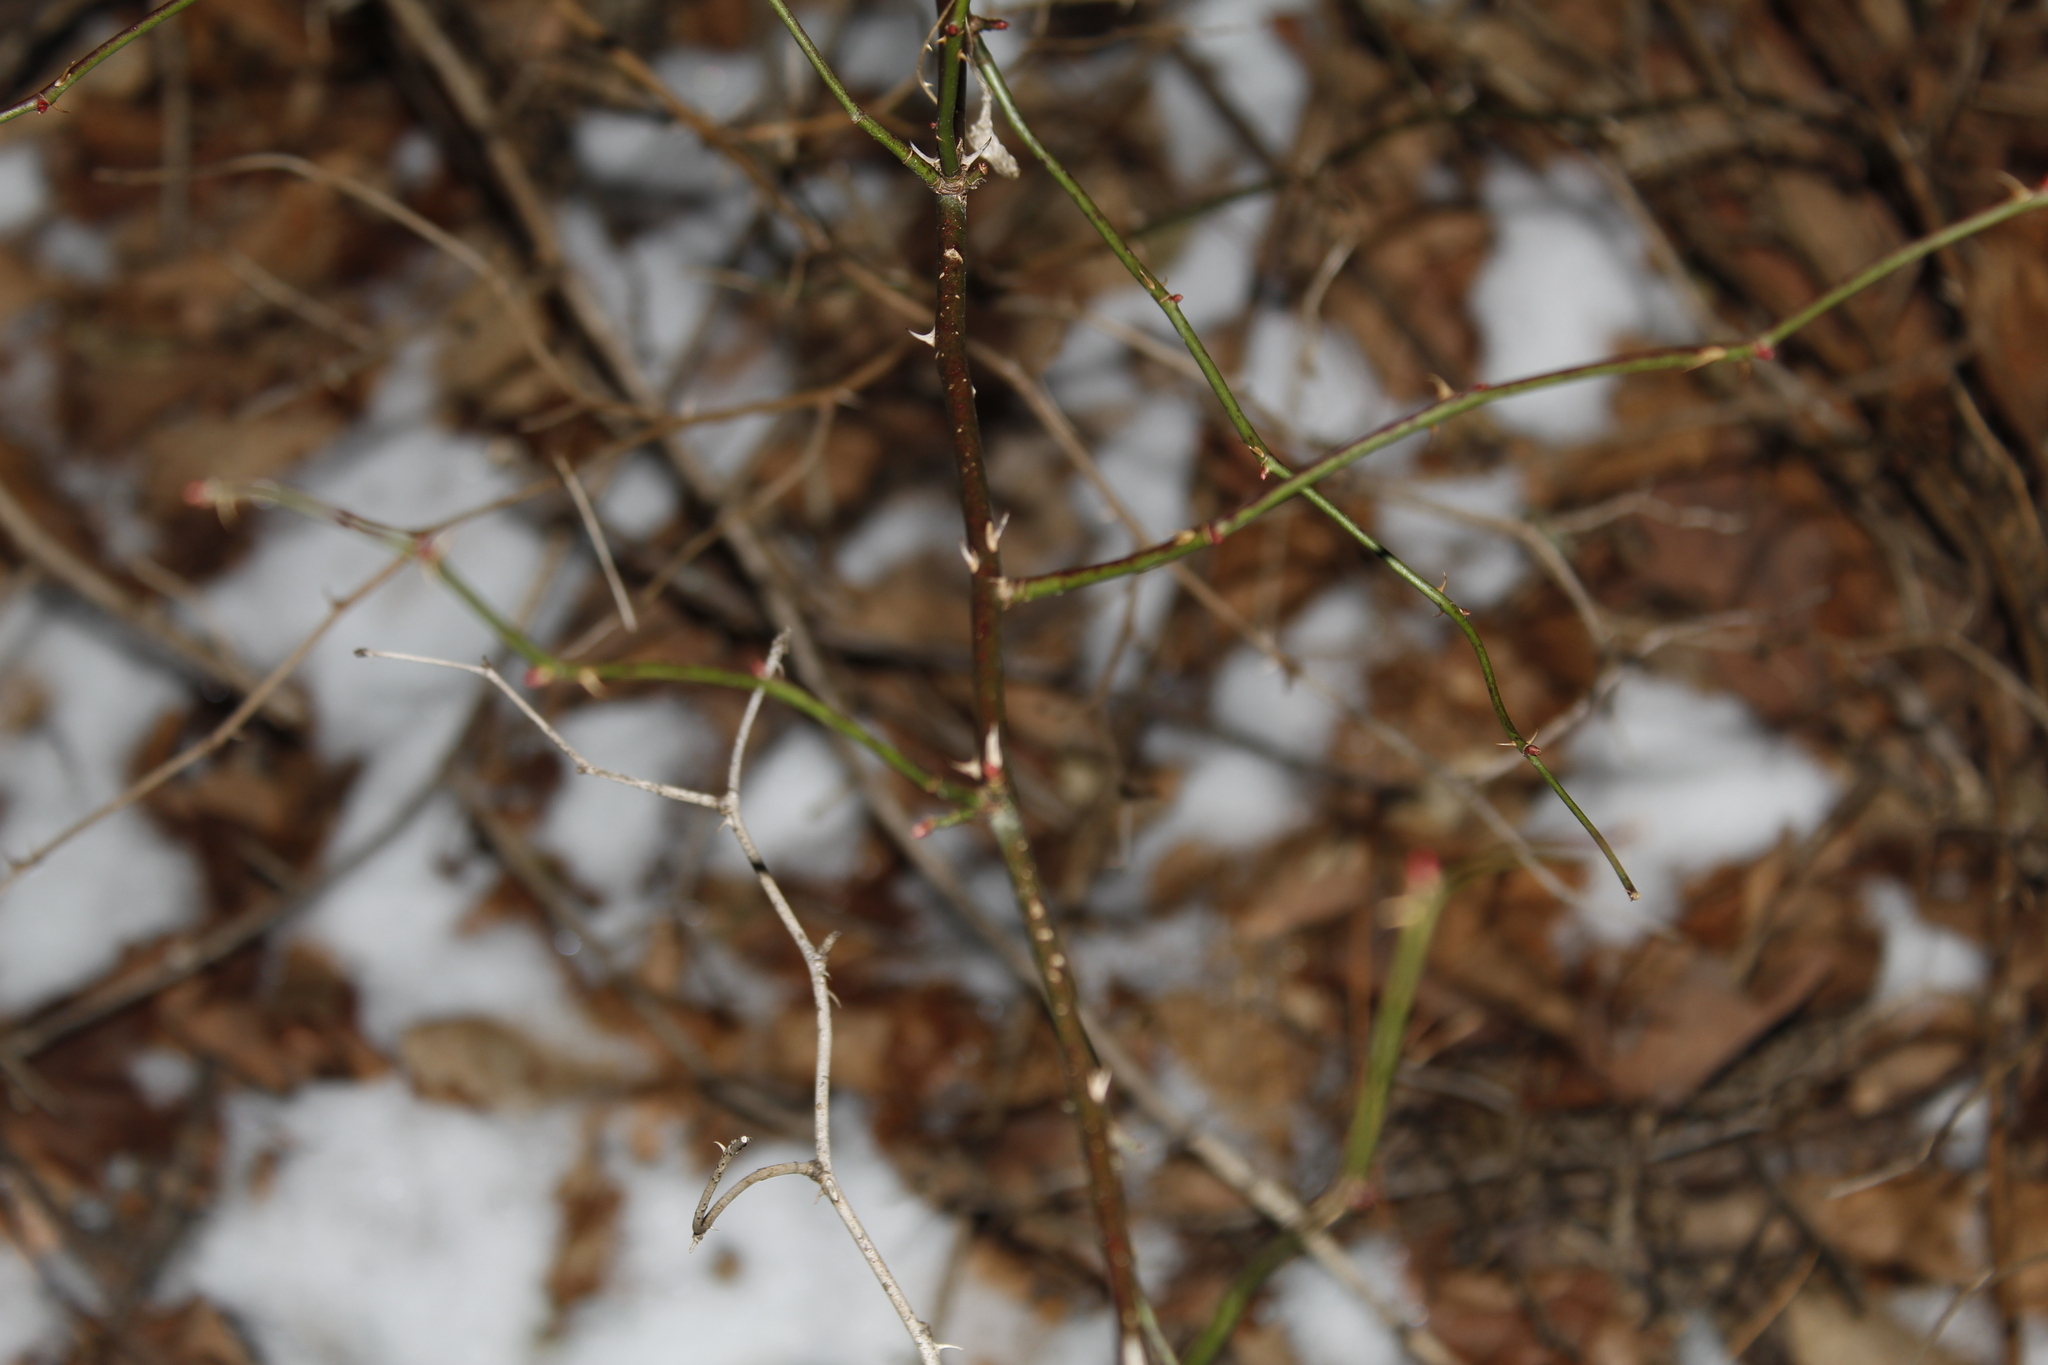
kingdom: Plantae
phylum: Tracheophyta
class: Magnoliopsida
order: Rosales
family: Rosaceae
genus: Rosa
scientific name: Rosa multiflora
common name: Multiflora rose
